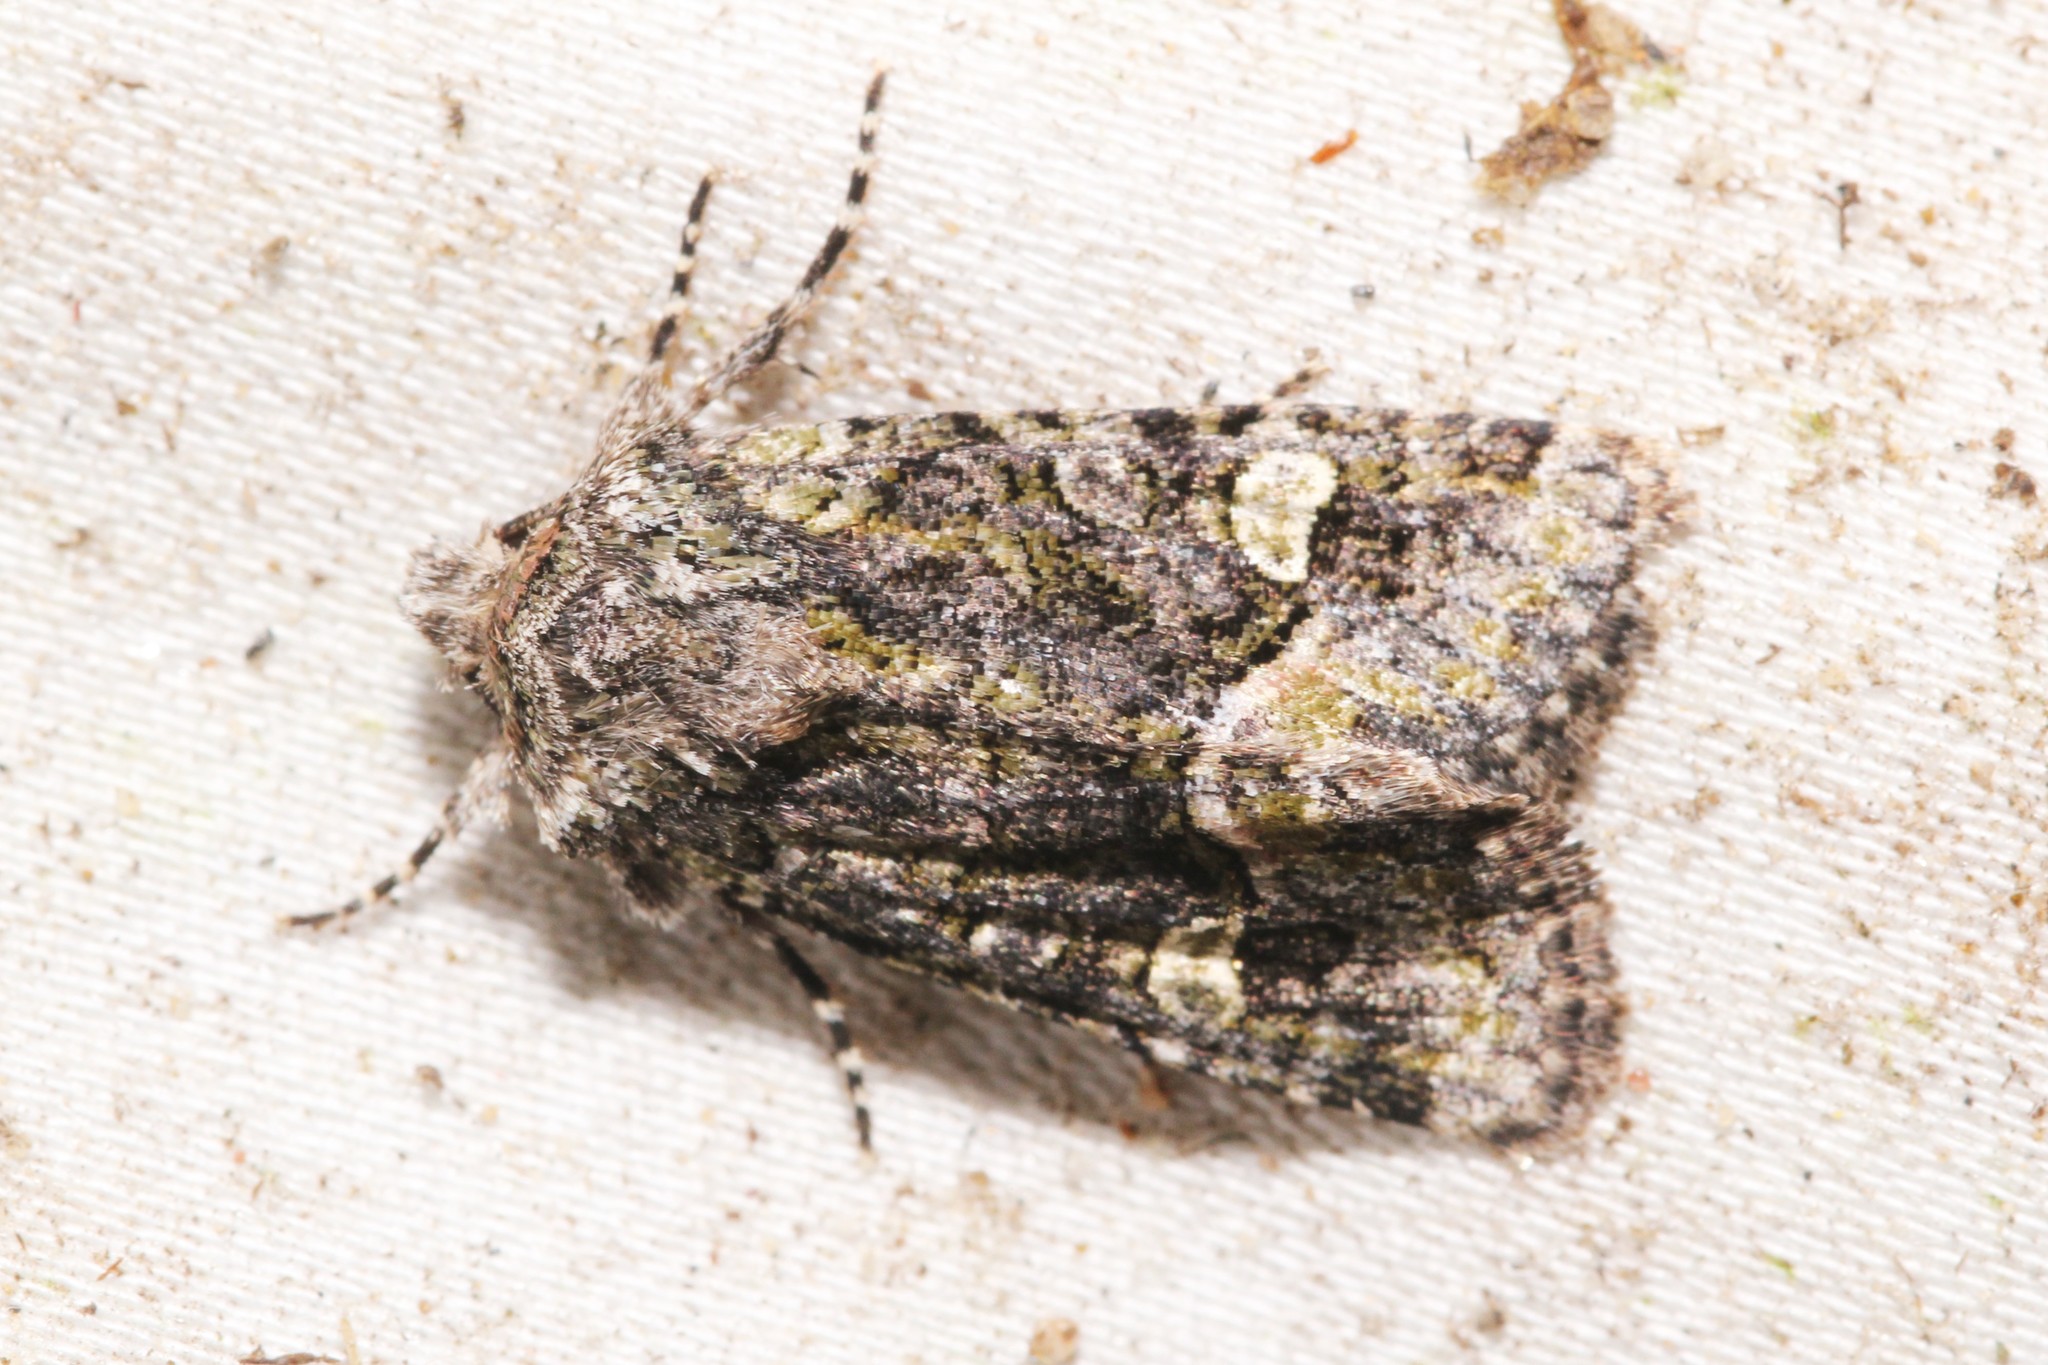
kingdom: Animalia
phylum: Arthropoda
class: Insecta
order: Lepidoptera
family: Noctuidae
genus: Lacinipolia
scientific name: Lacinipolia olivacea
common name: Olive arches moth
